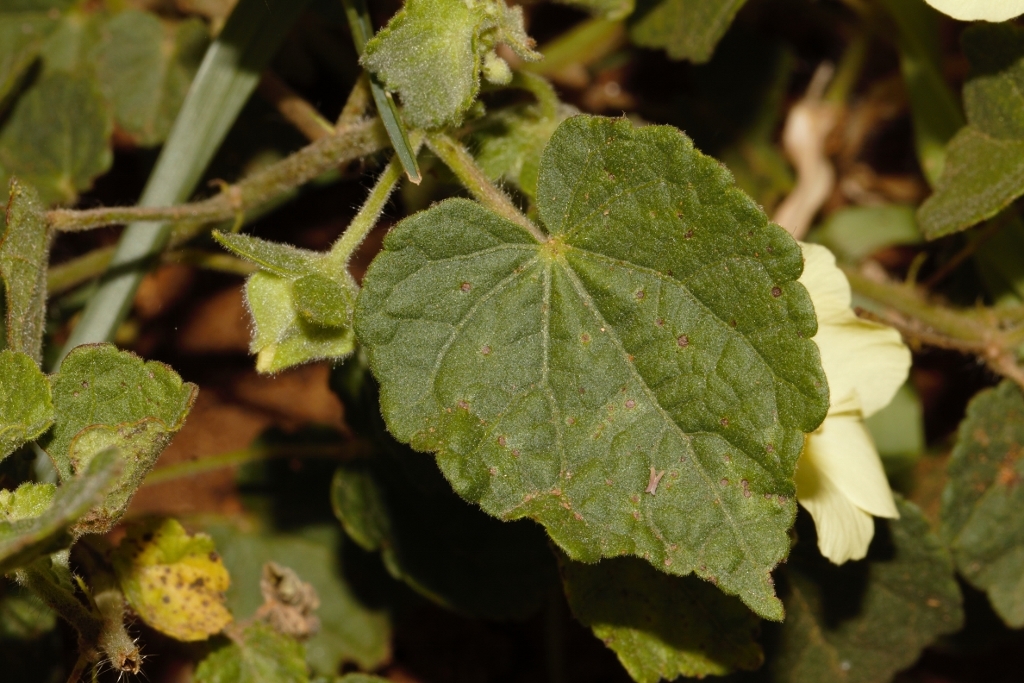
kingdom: Plantae
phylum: Tracheophyta
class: Magnoliopsida
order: Malvales
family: Malvaceae
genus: Pavonia
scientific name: Pavonia burchellii
